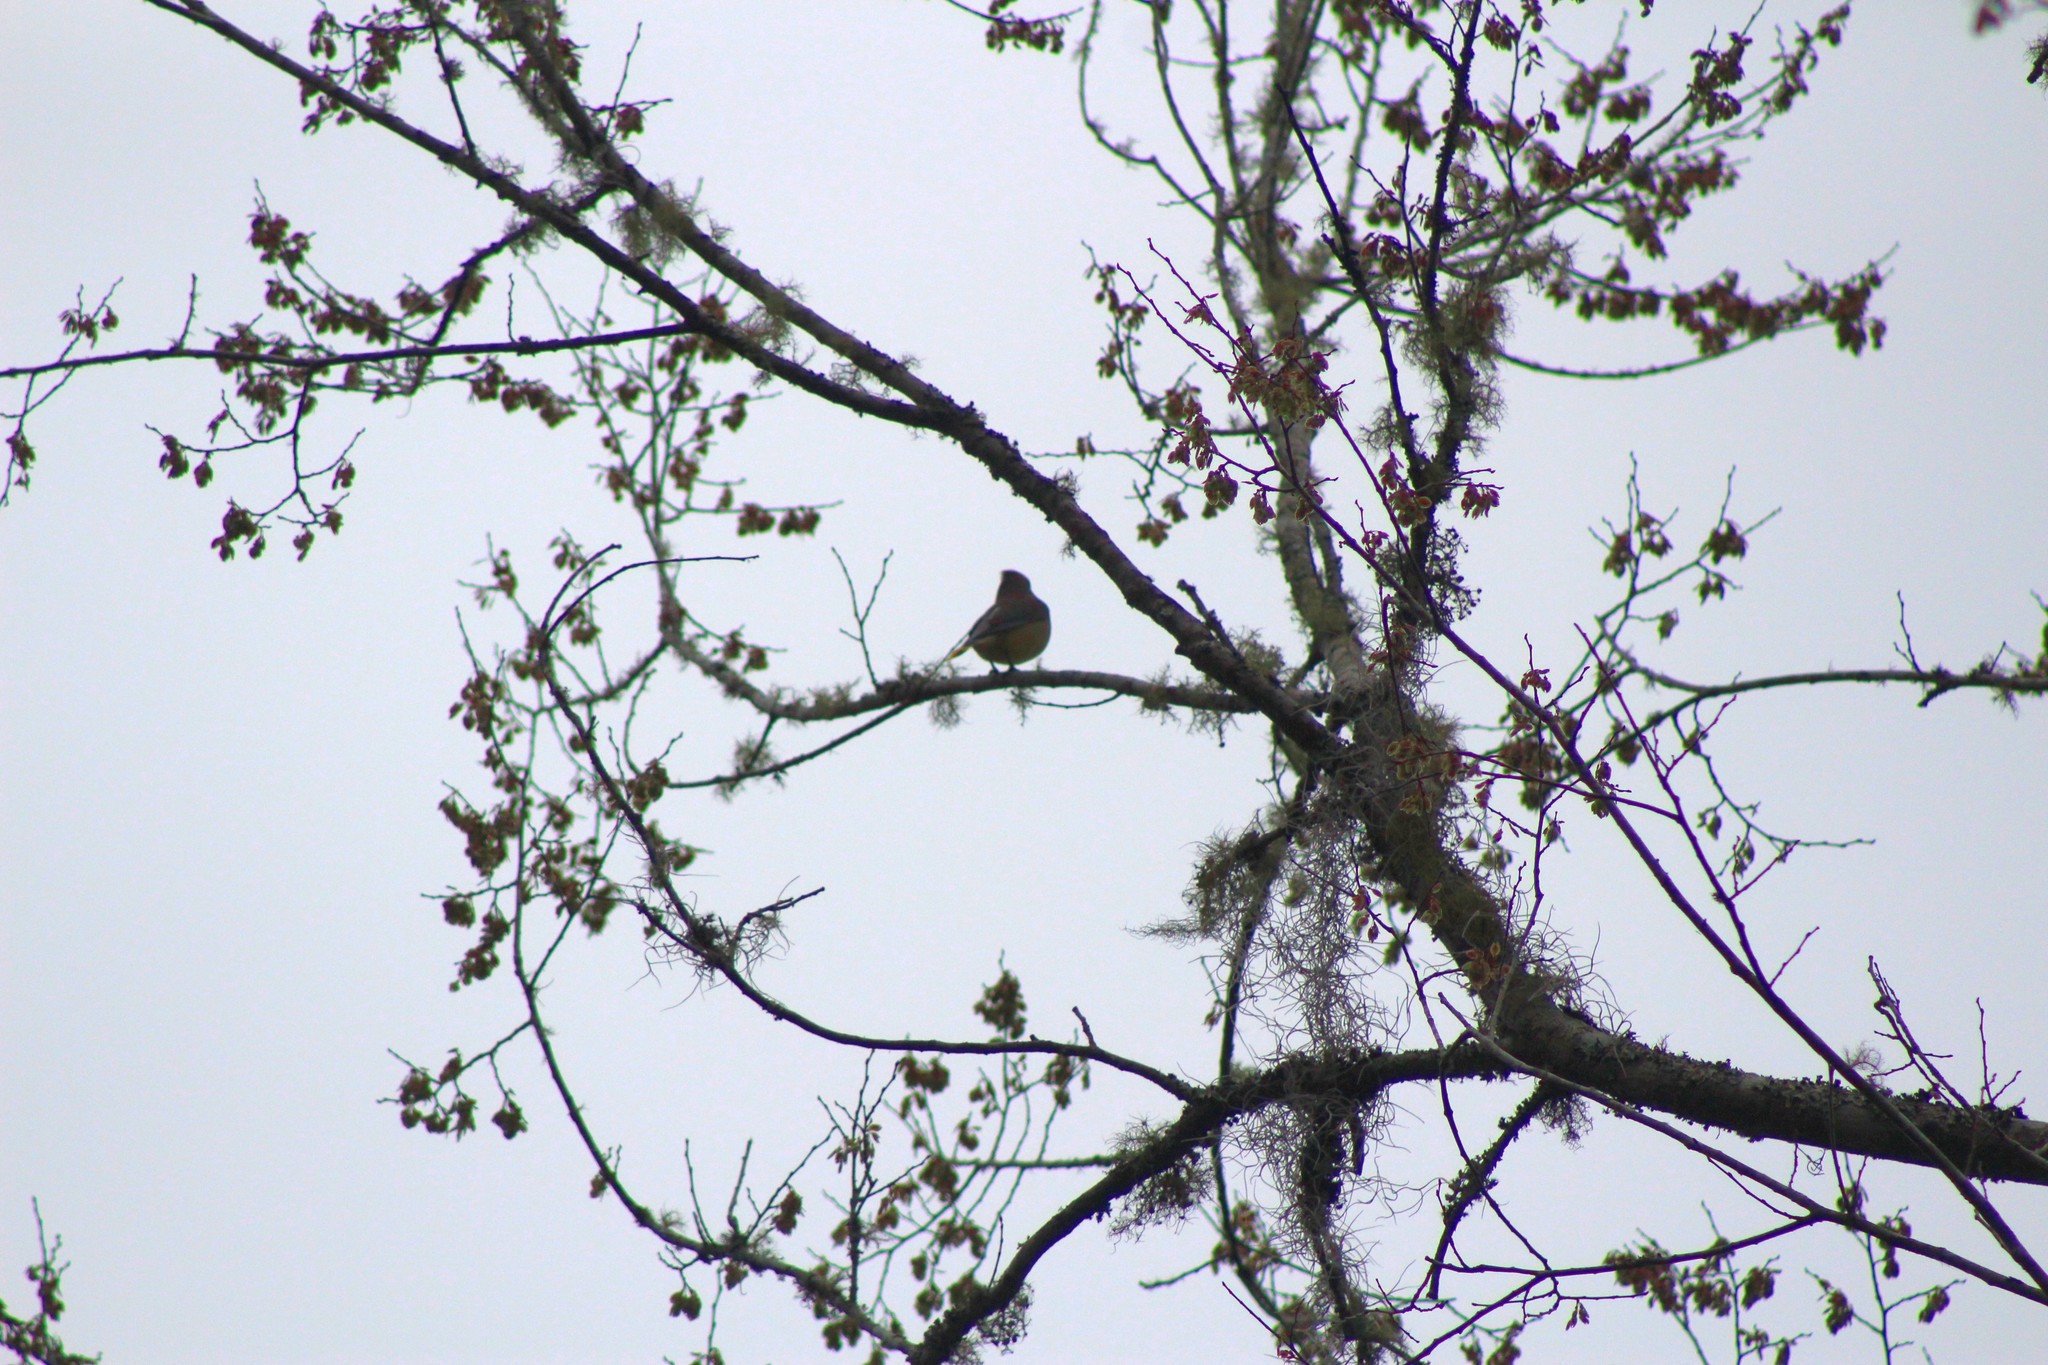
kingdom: Animalia
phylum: Chordata
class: Aves
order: Passeriformes
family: Bombycillidae
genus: Bombycilla
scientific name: Bombycilla cedrorum
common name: Cedar waxwing
